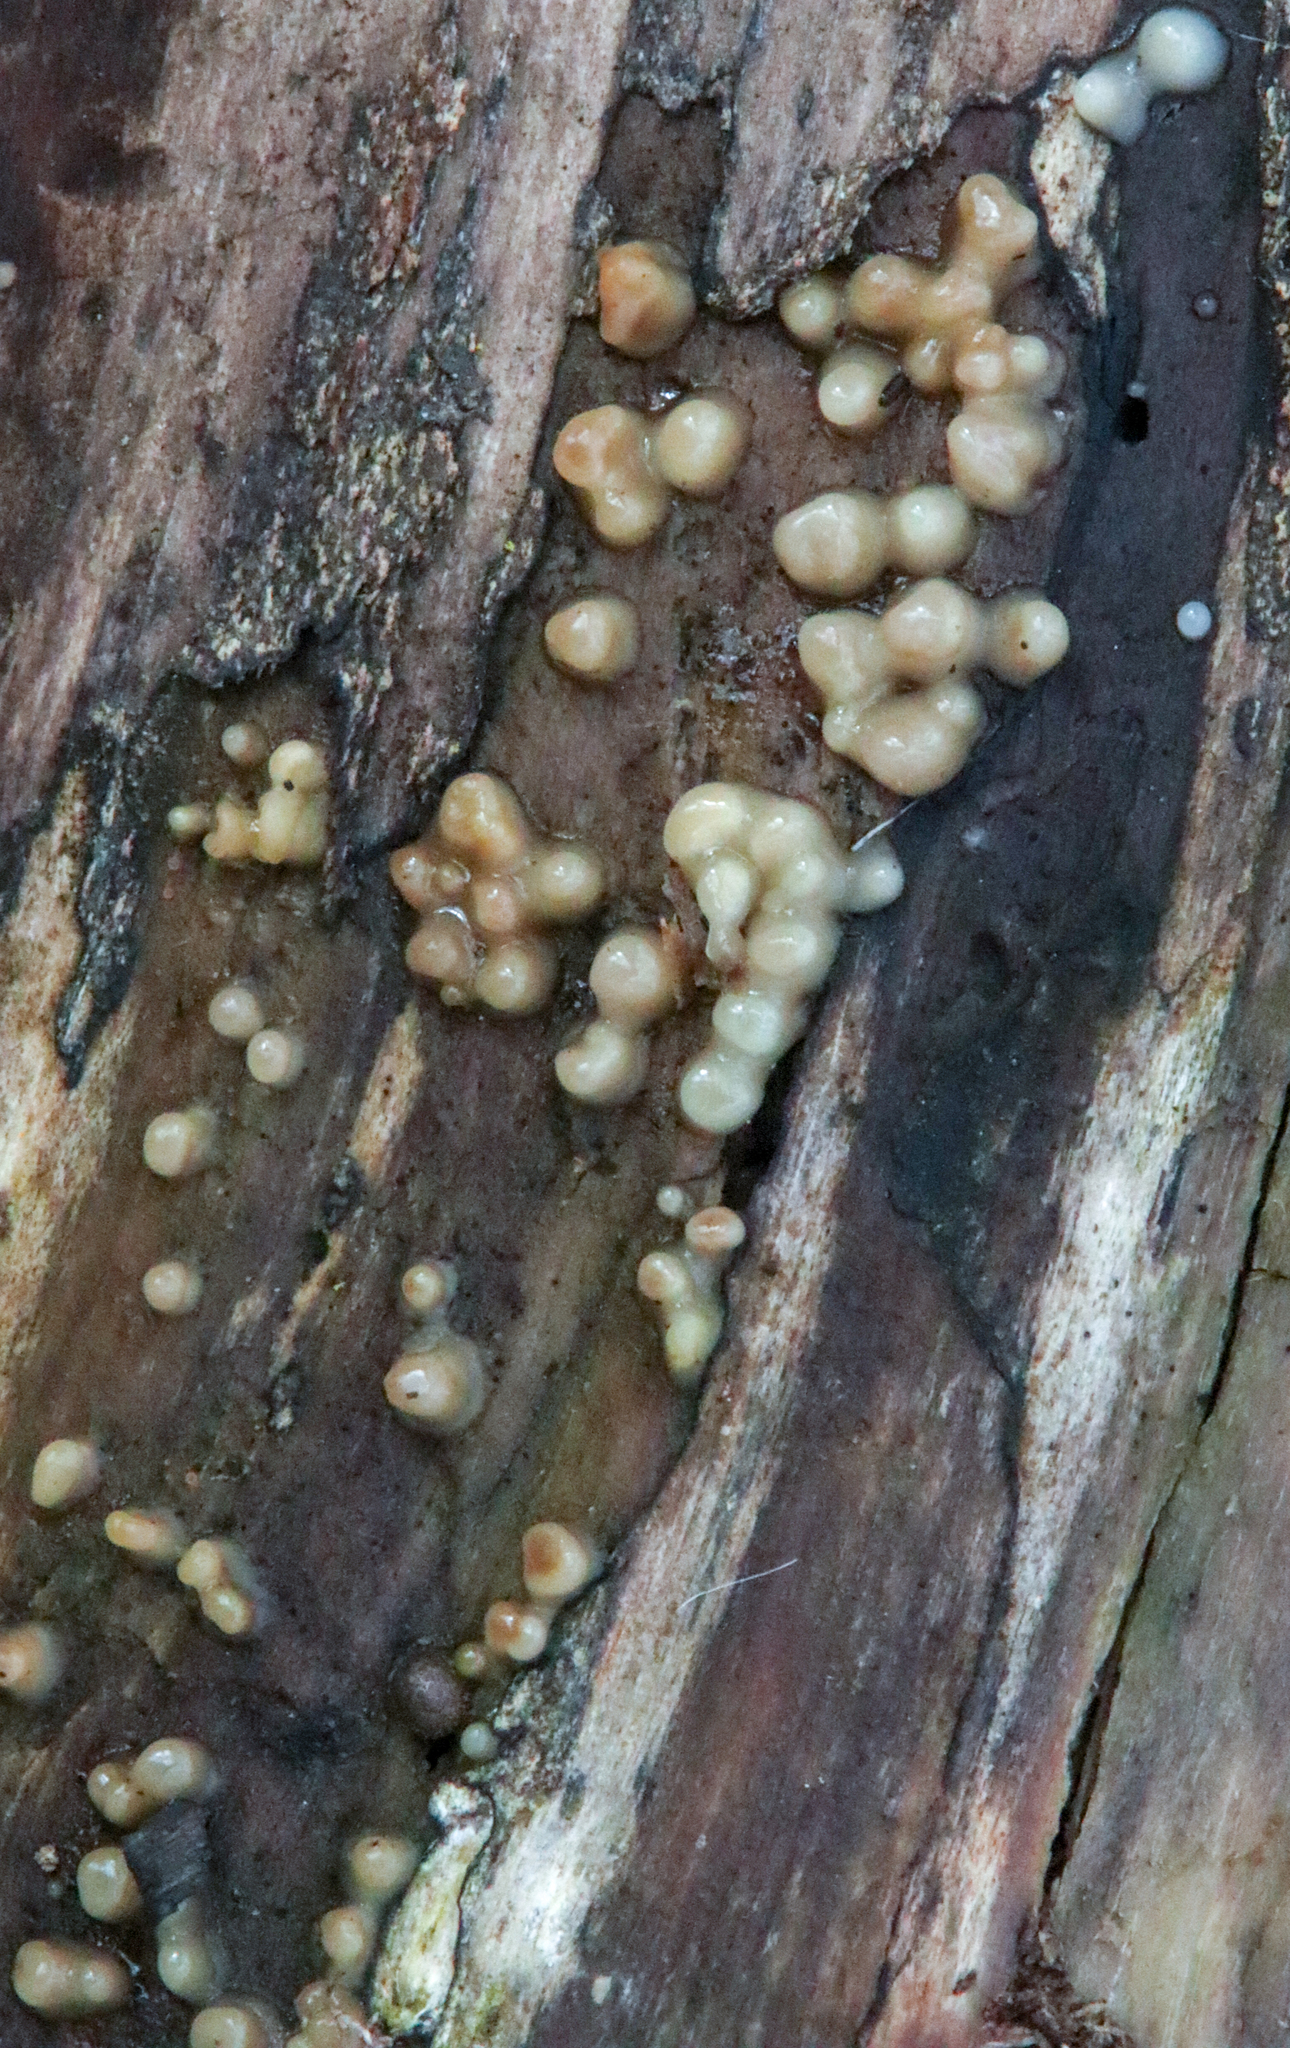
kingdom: Fungi
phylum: Basidiomycota
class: Atractiellomycetes
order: Atractiellales
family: Phleogenaceae
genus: Helicogloea
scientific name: Helicogloea compressa
